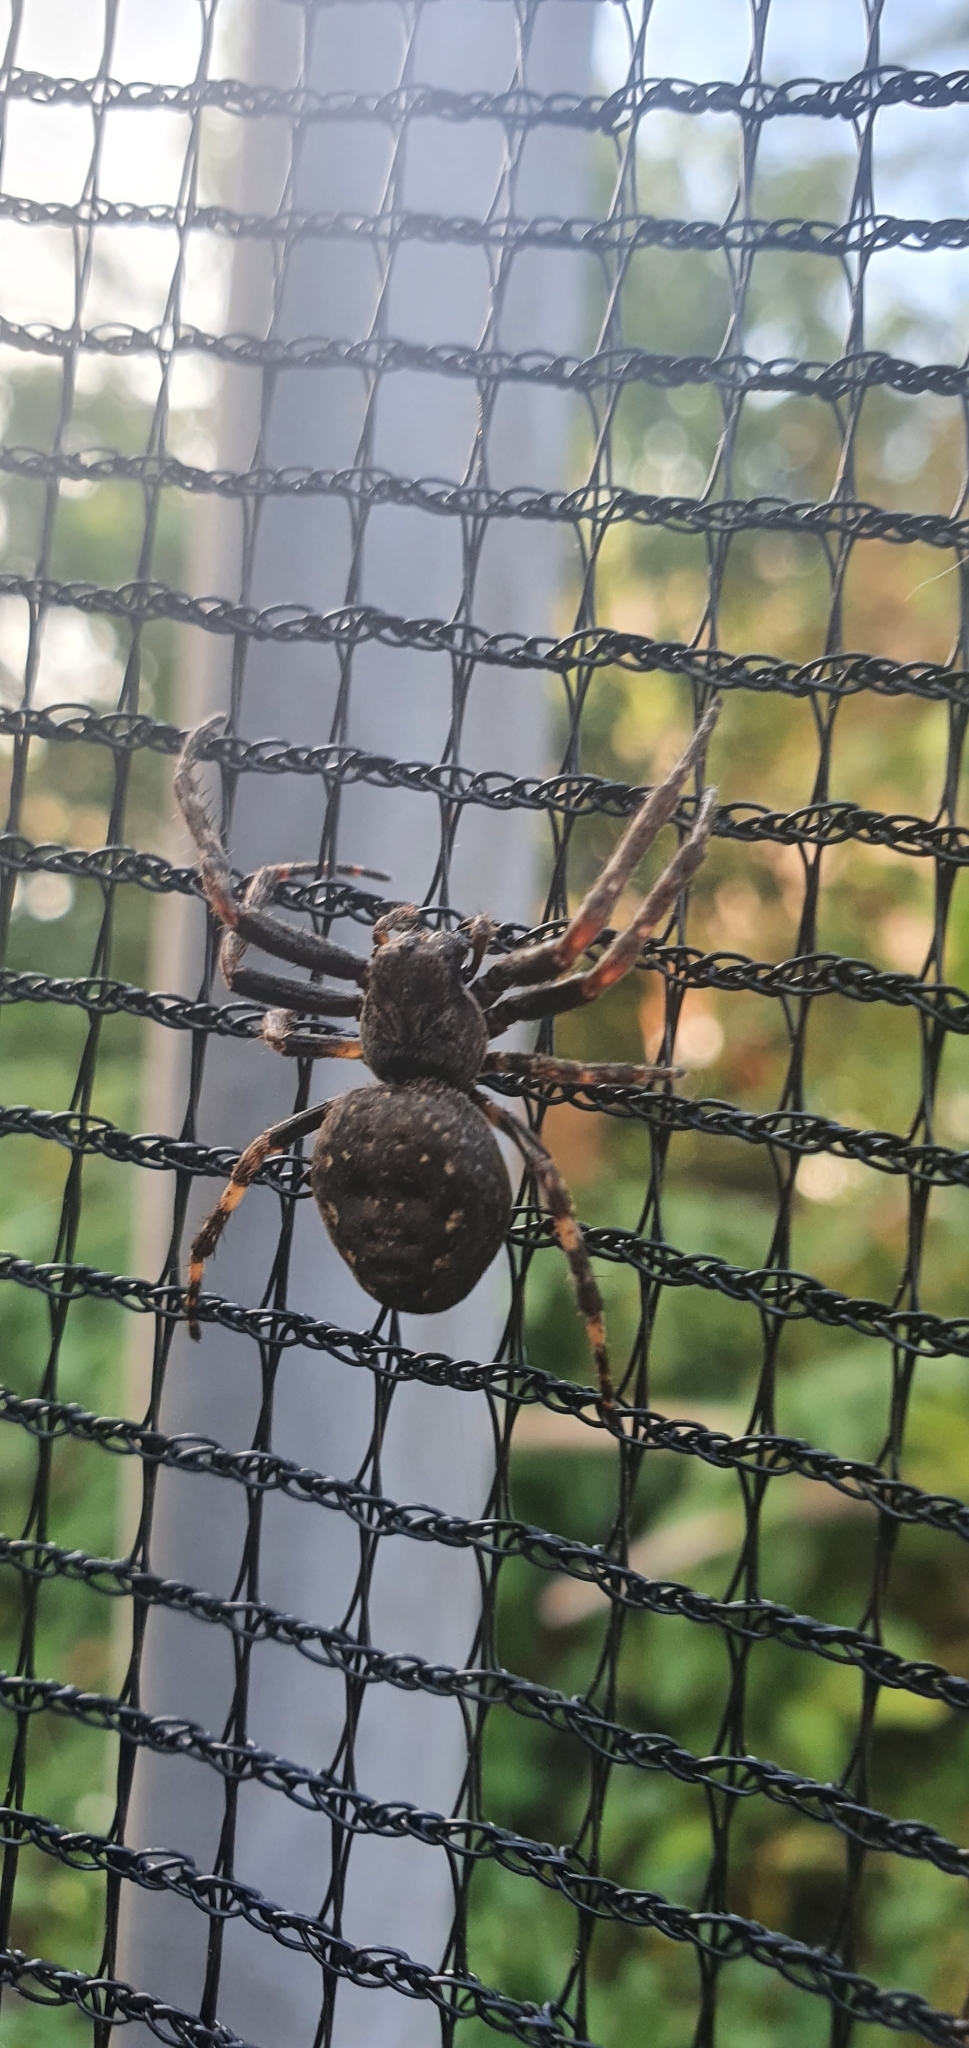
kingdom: Animalia
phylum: Arthropoda
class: Arachnida
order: Araneae
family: Araneidae
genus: Nuctenea
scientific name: Nuctenea umbratica
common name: Toad spider
